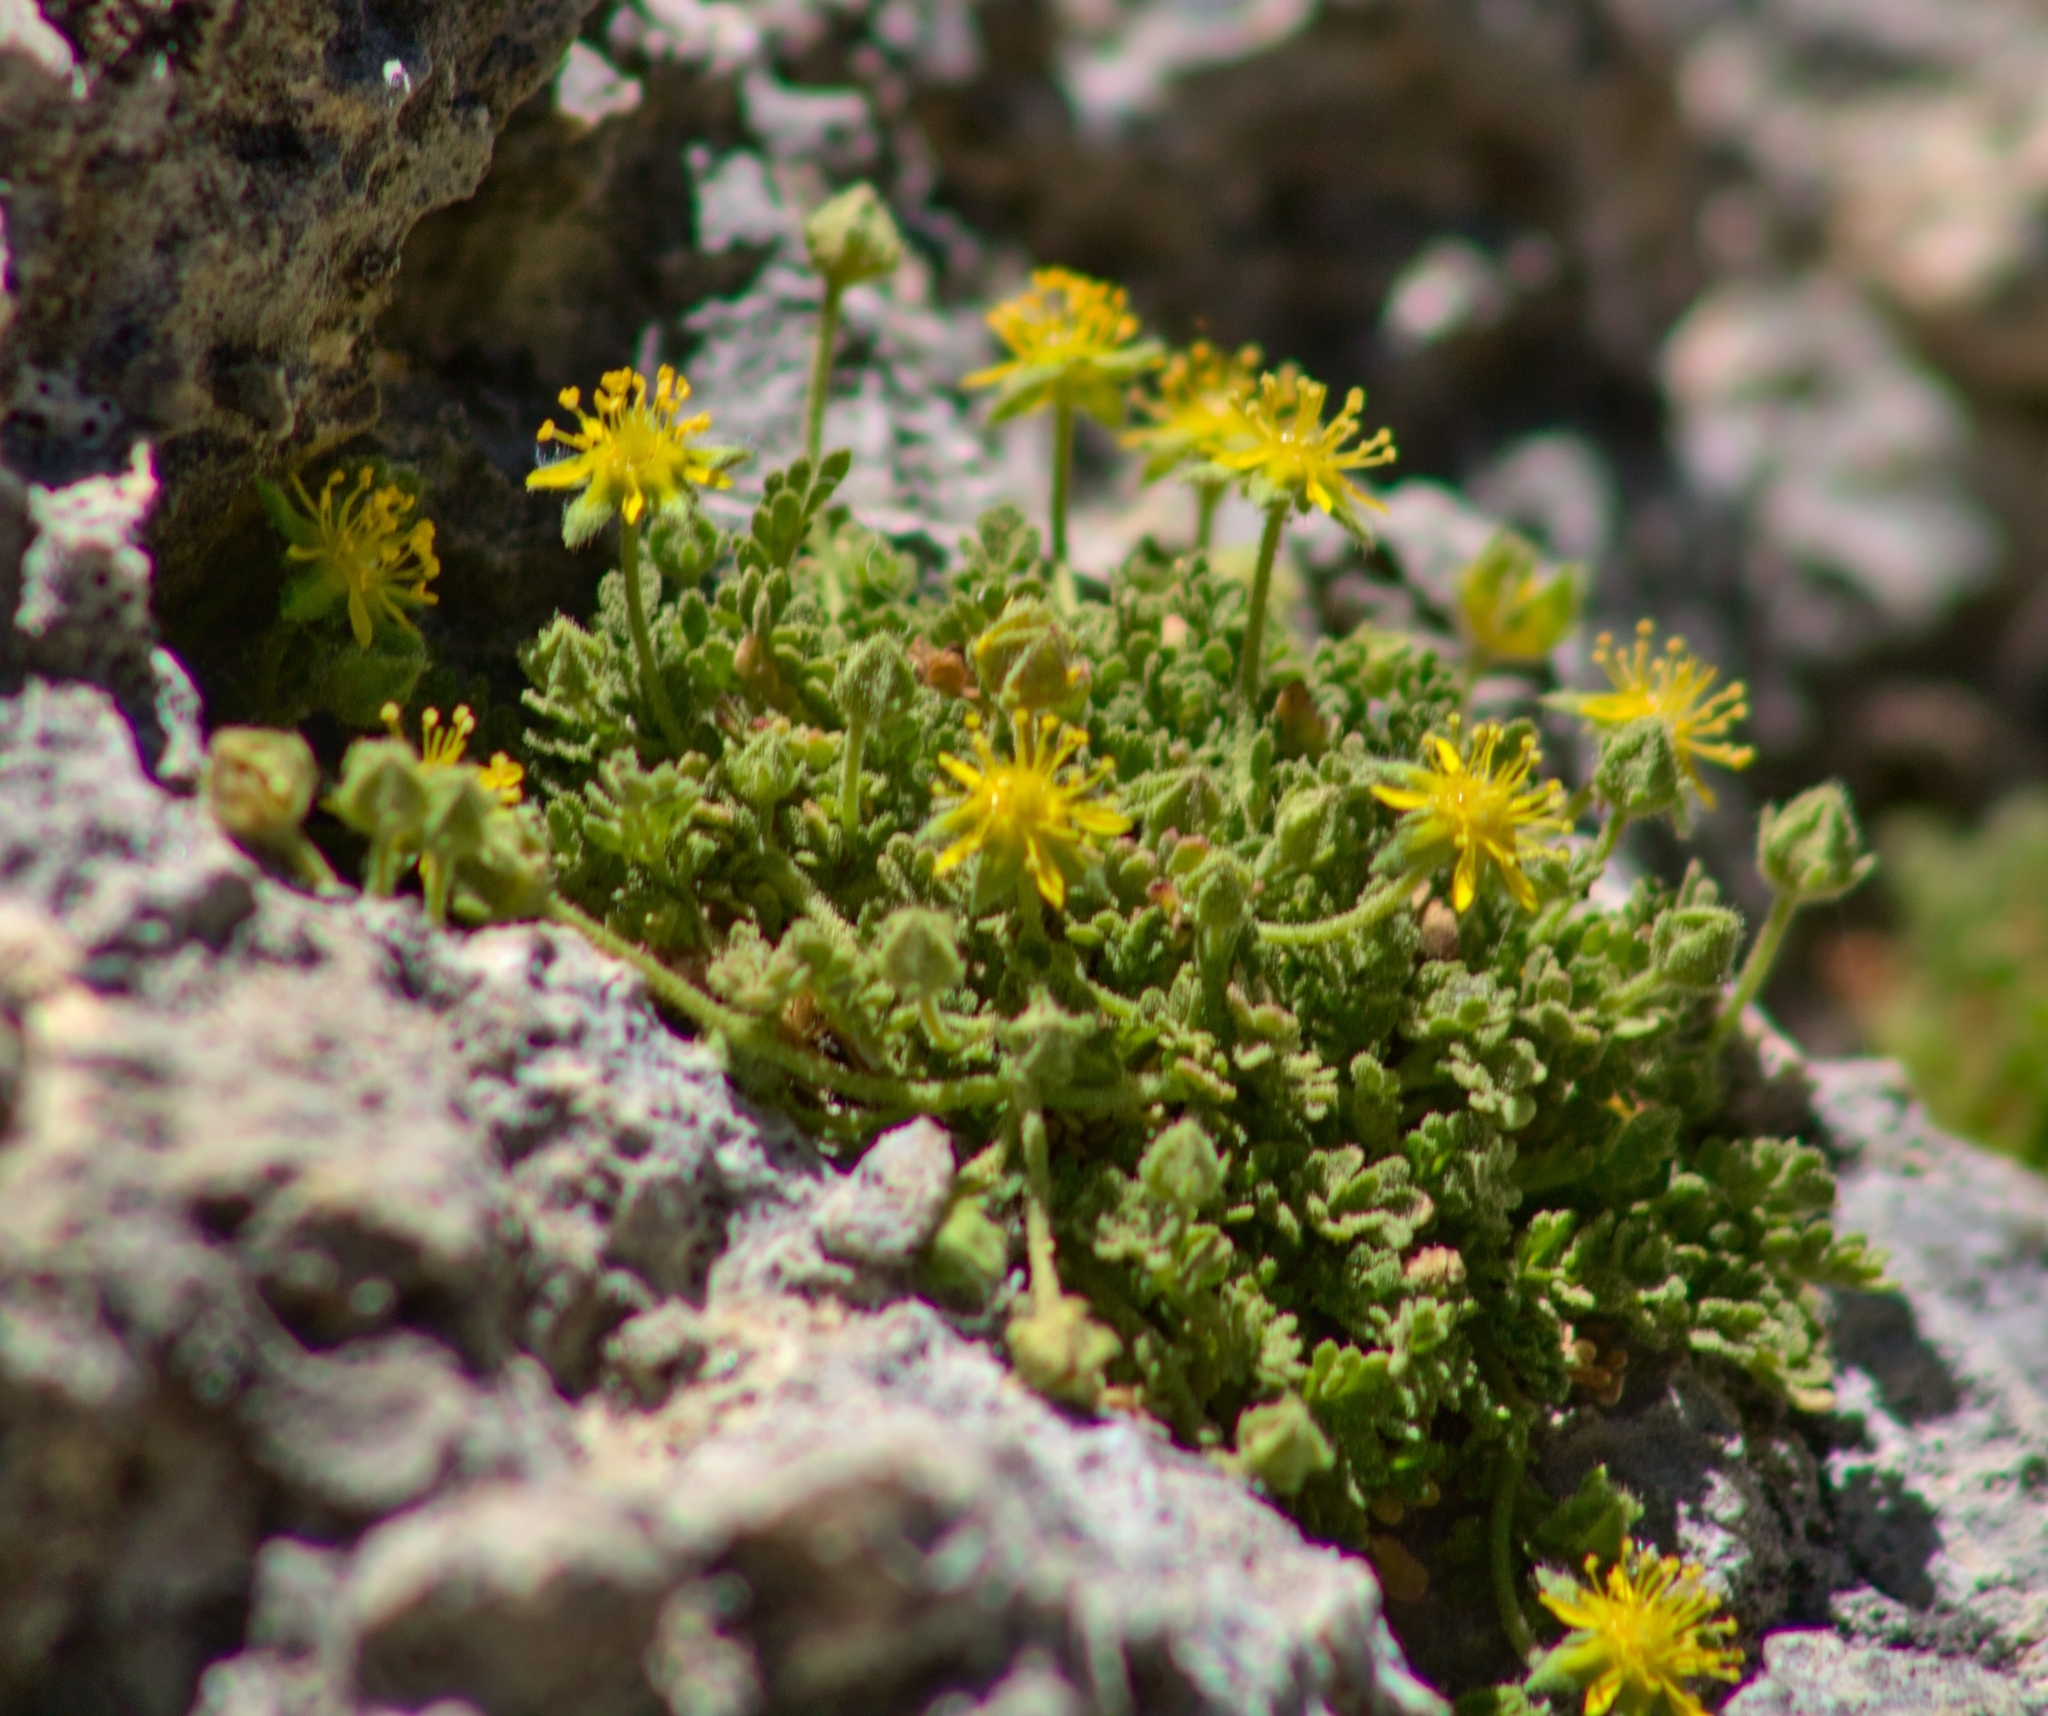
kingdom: Plantae
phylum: Tracheophyta
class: Magnoliopsida
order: Rosales
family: Rosaceae
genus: Potentilla
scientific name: Potentilla jaegeri
